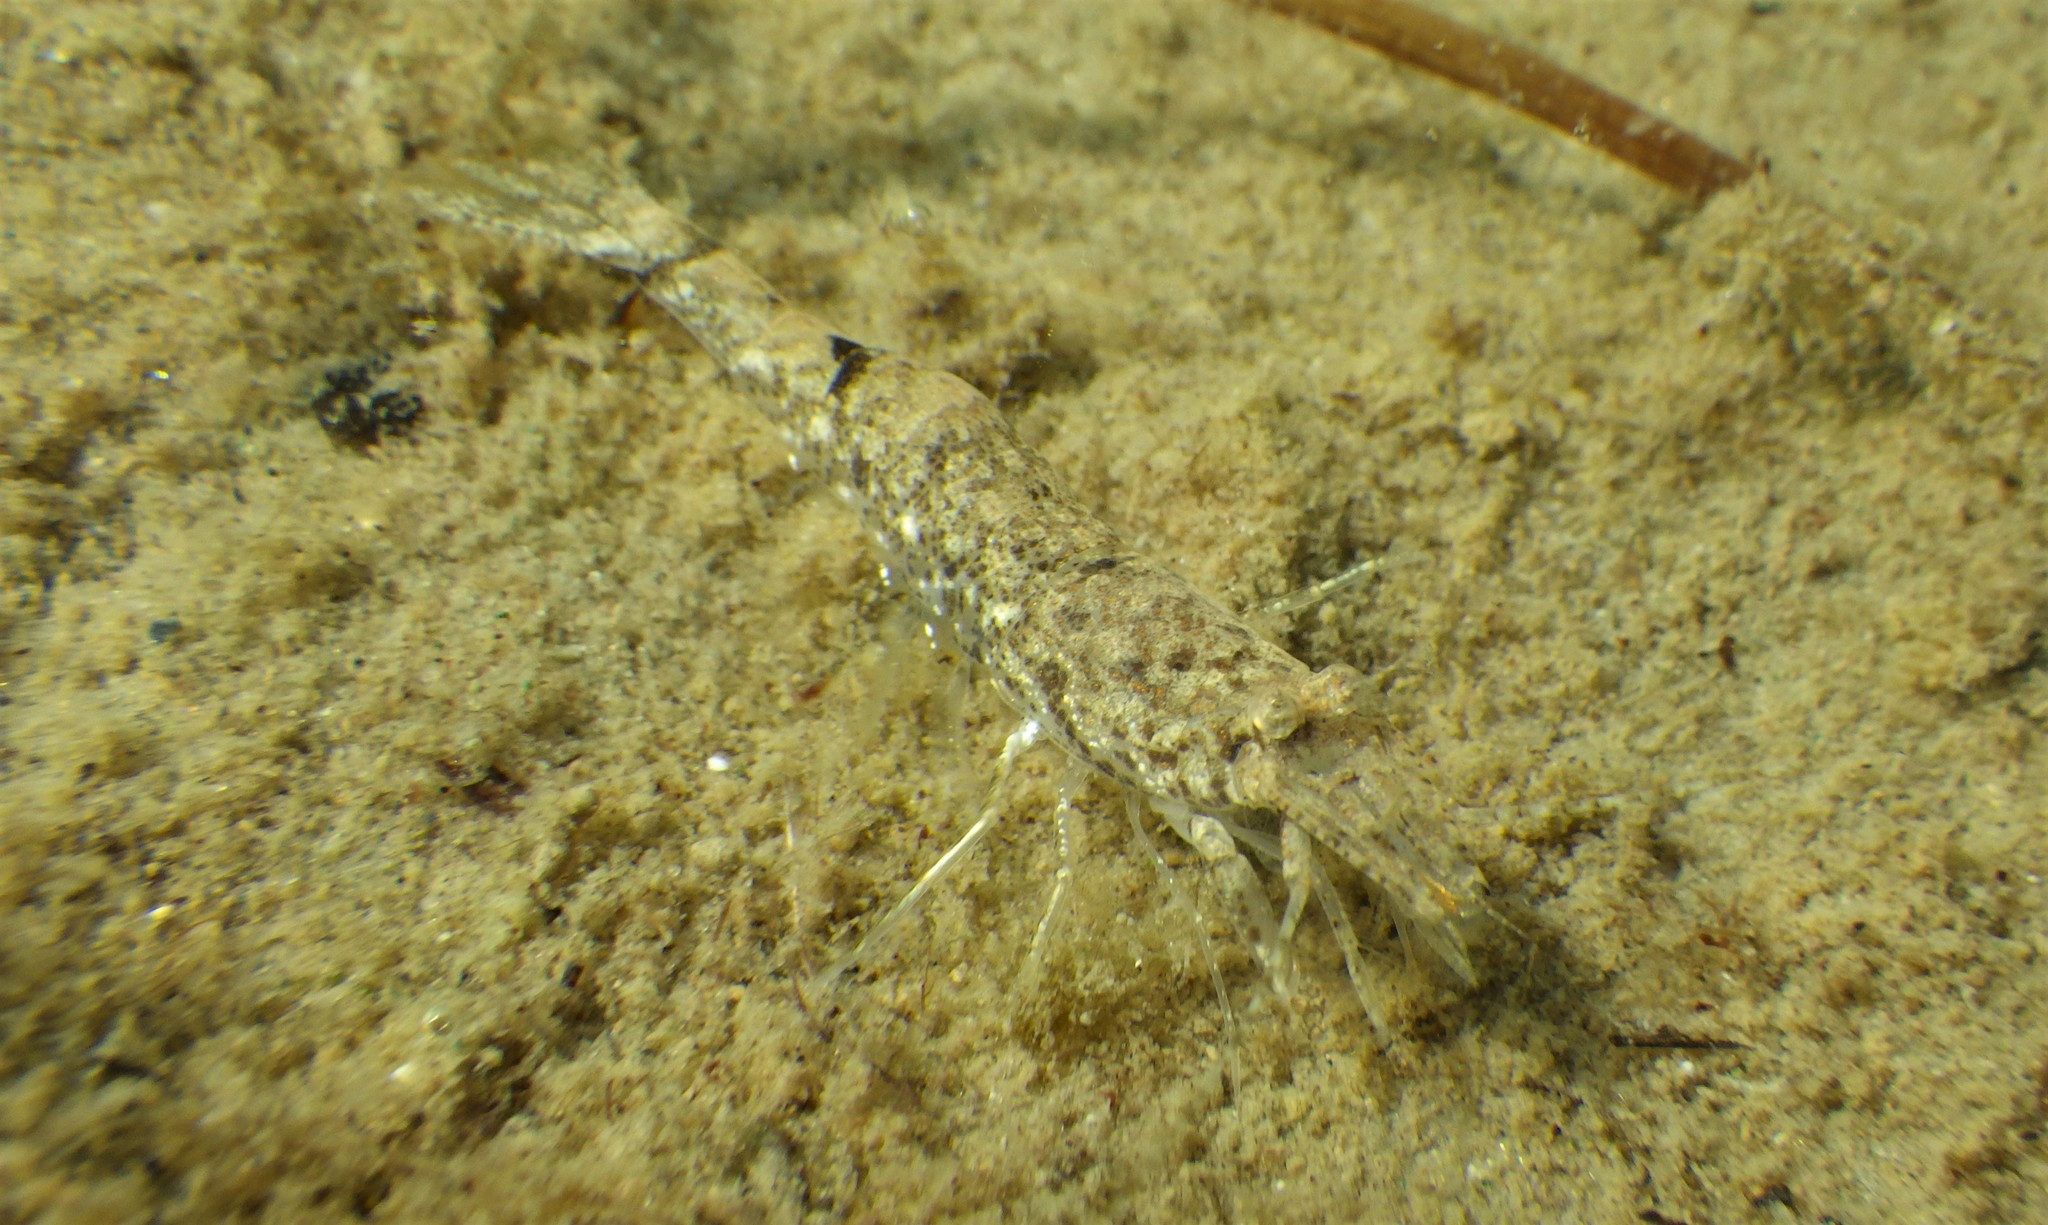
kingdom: Animalia
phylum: Arthropoda
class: Malacostraca
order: Decapoda
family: Crangonidae
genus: Crangon
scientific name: Crangon crangon
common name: Brown shrimp
